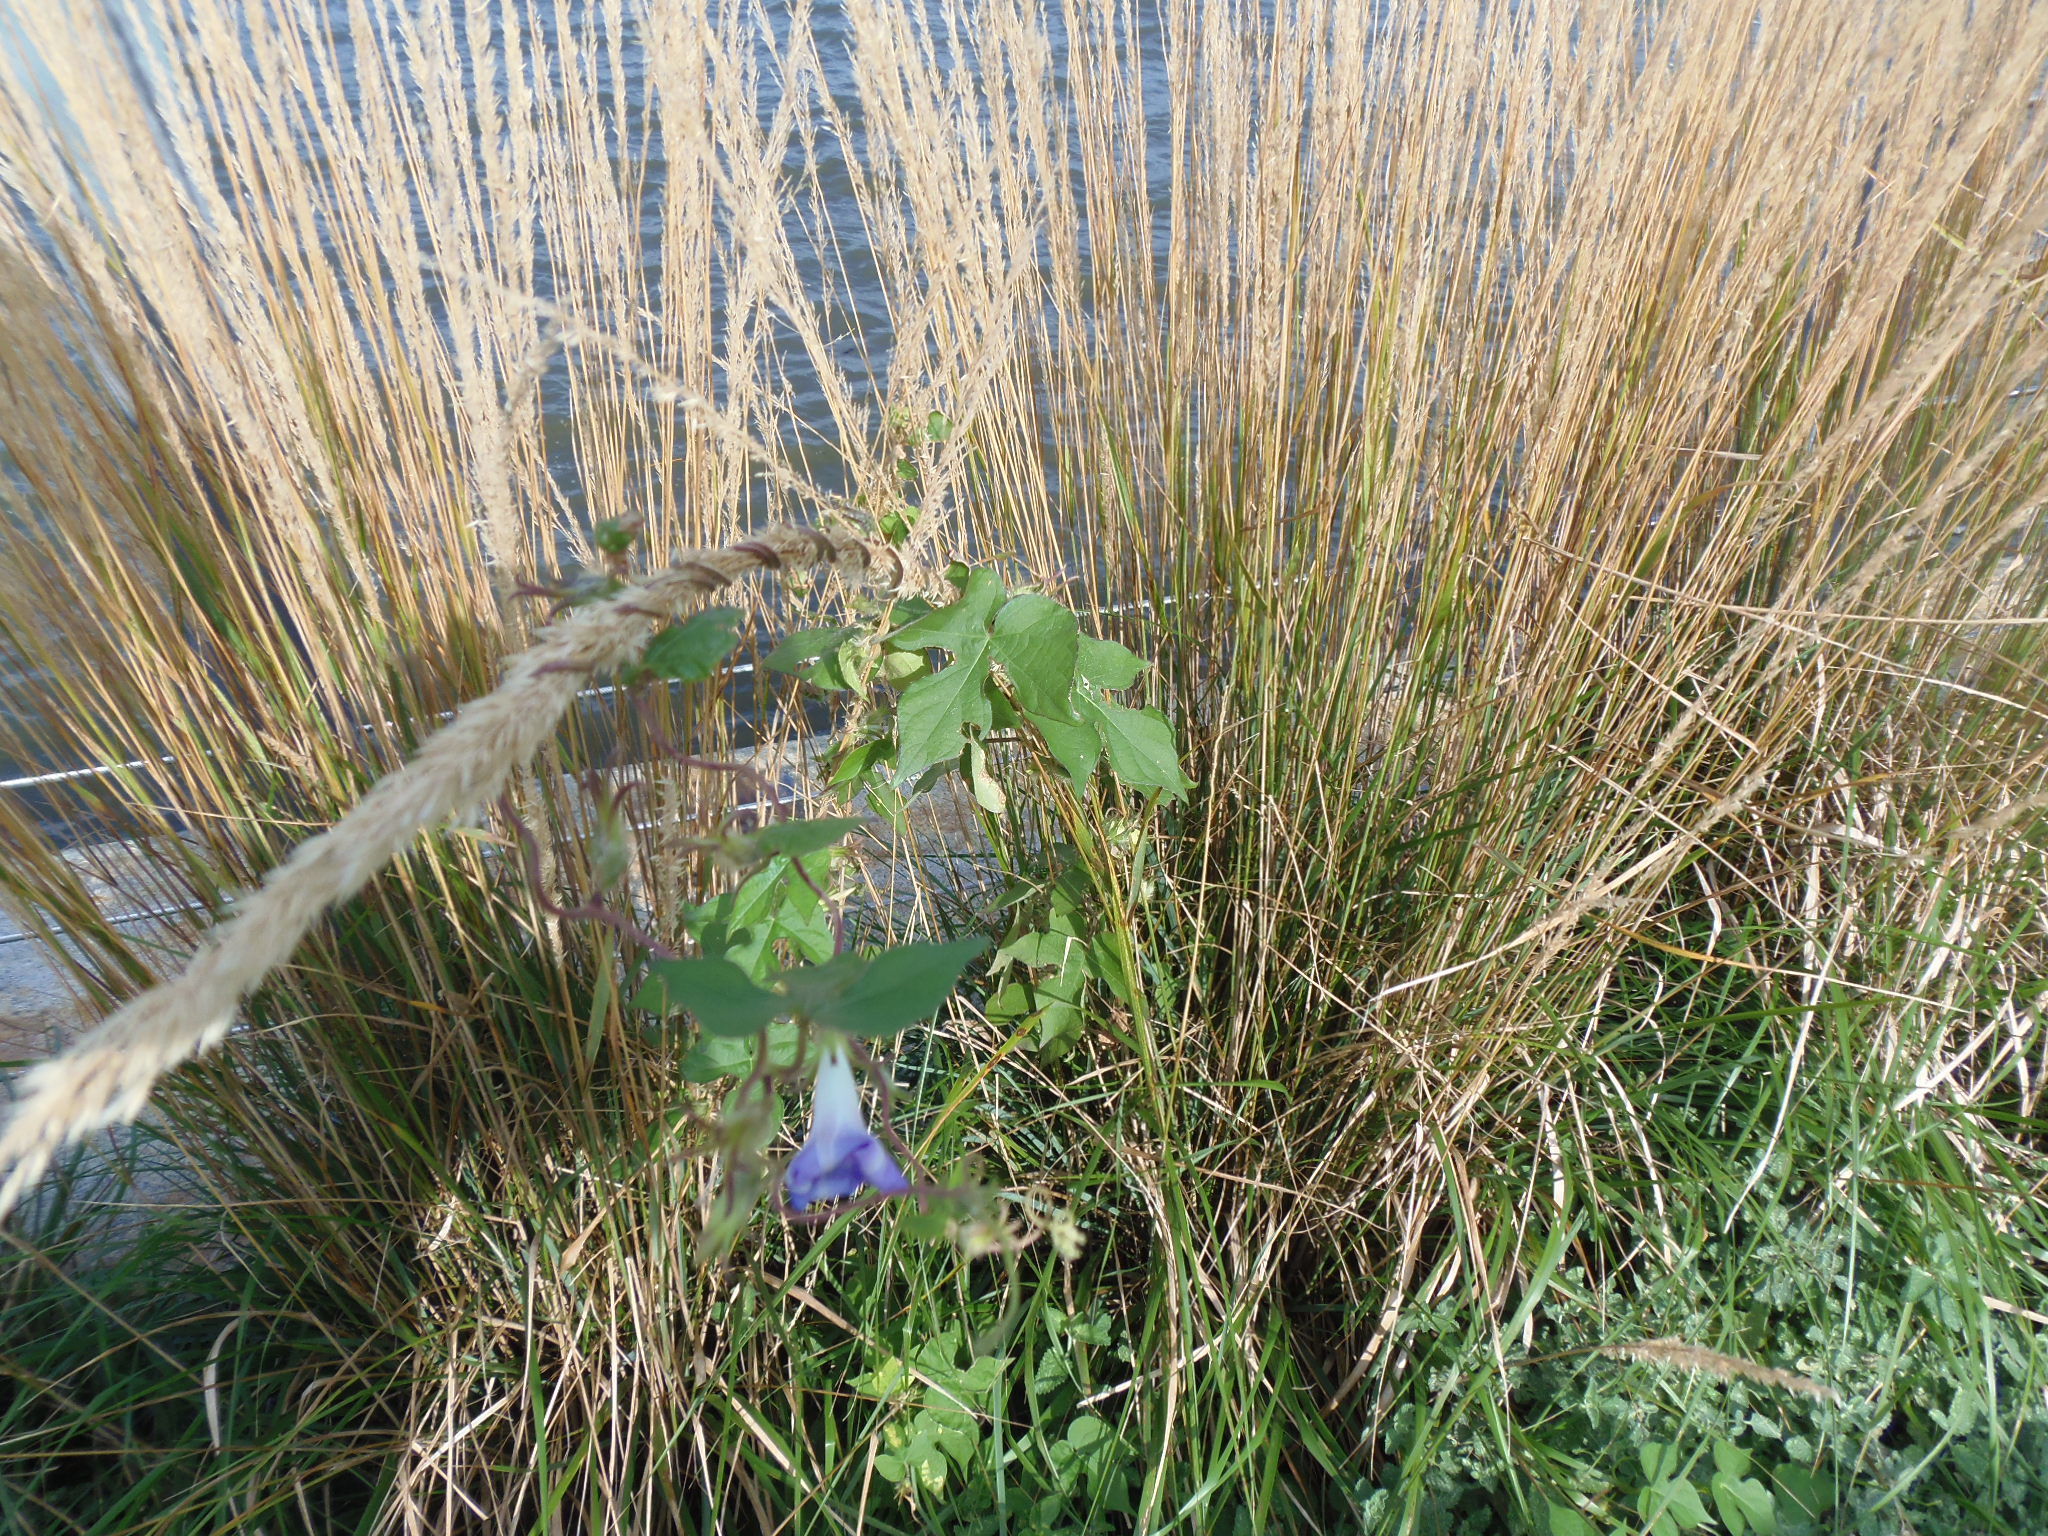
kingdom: Plantae
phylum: Tracheophyta
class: Magnoliopsida
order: Solanales
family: Convolvulaceae
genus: Ipomoea
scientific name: Ipomoea hederacea
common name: Ivy-leaved morning-glory
